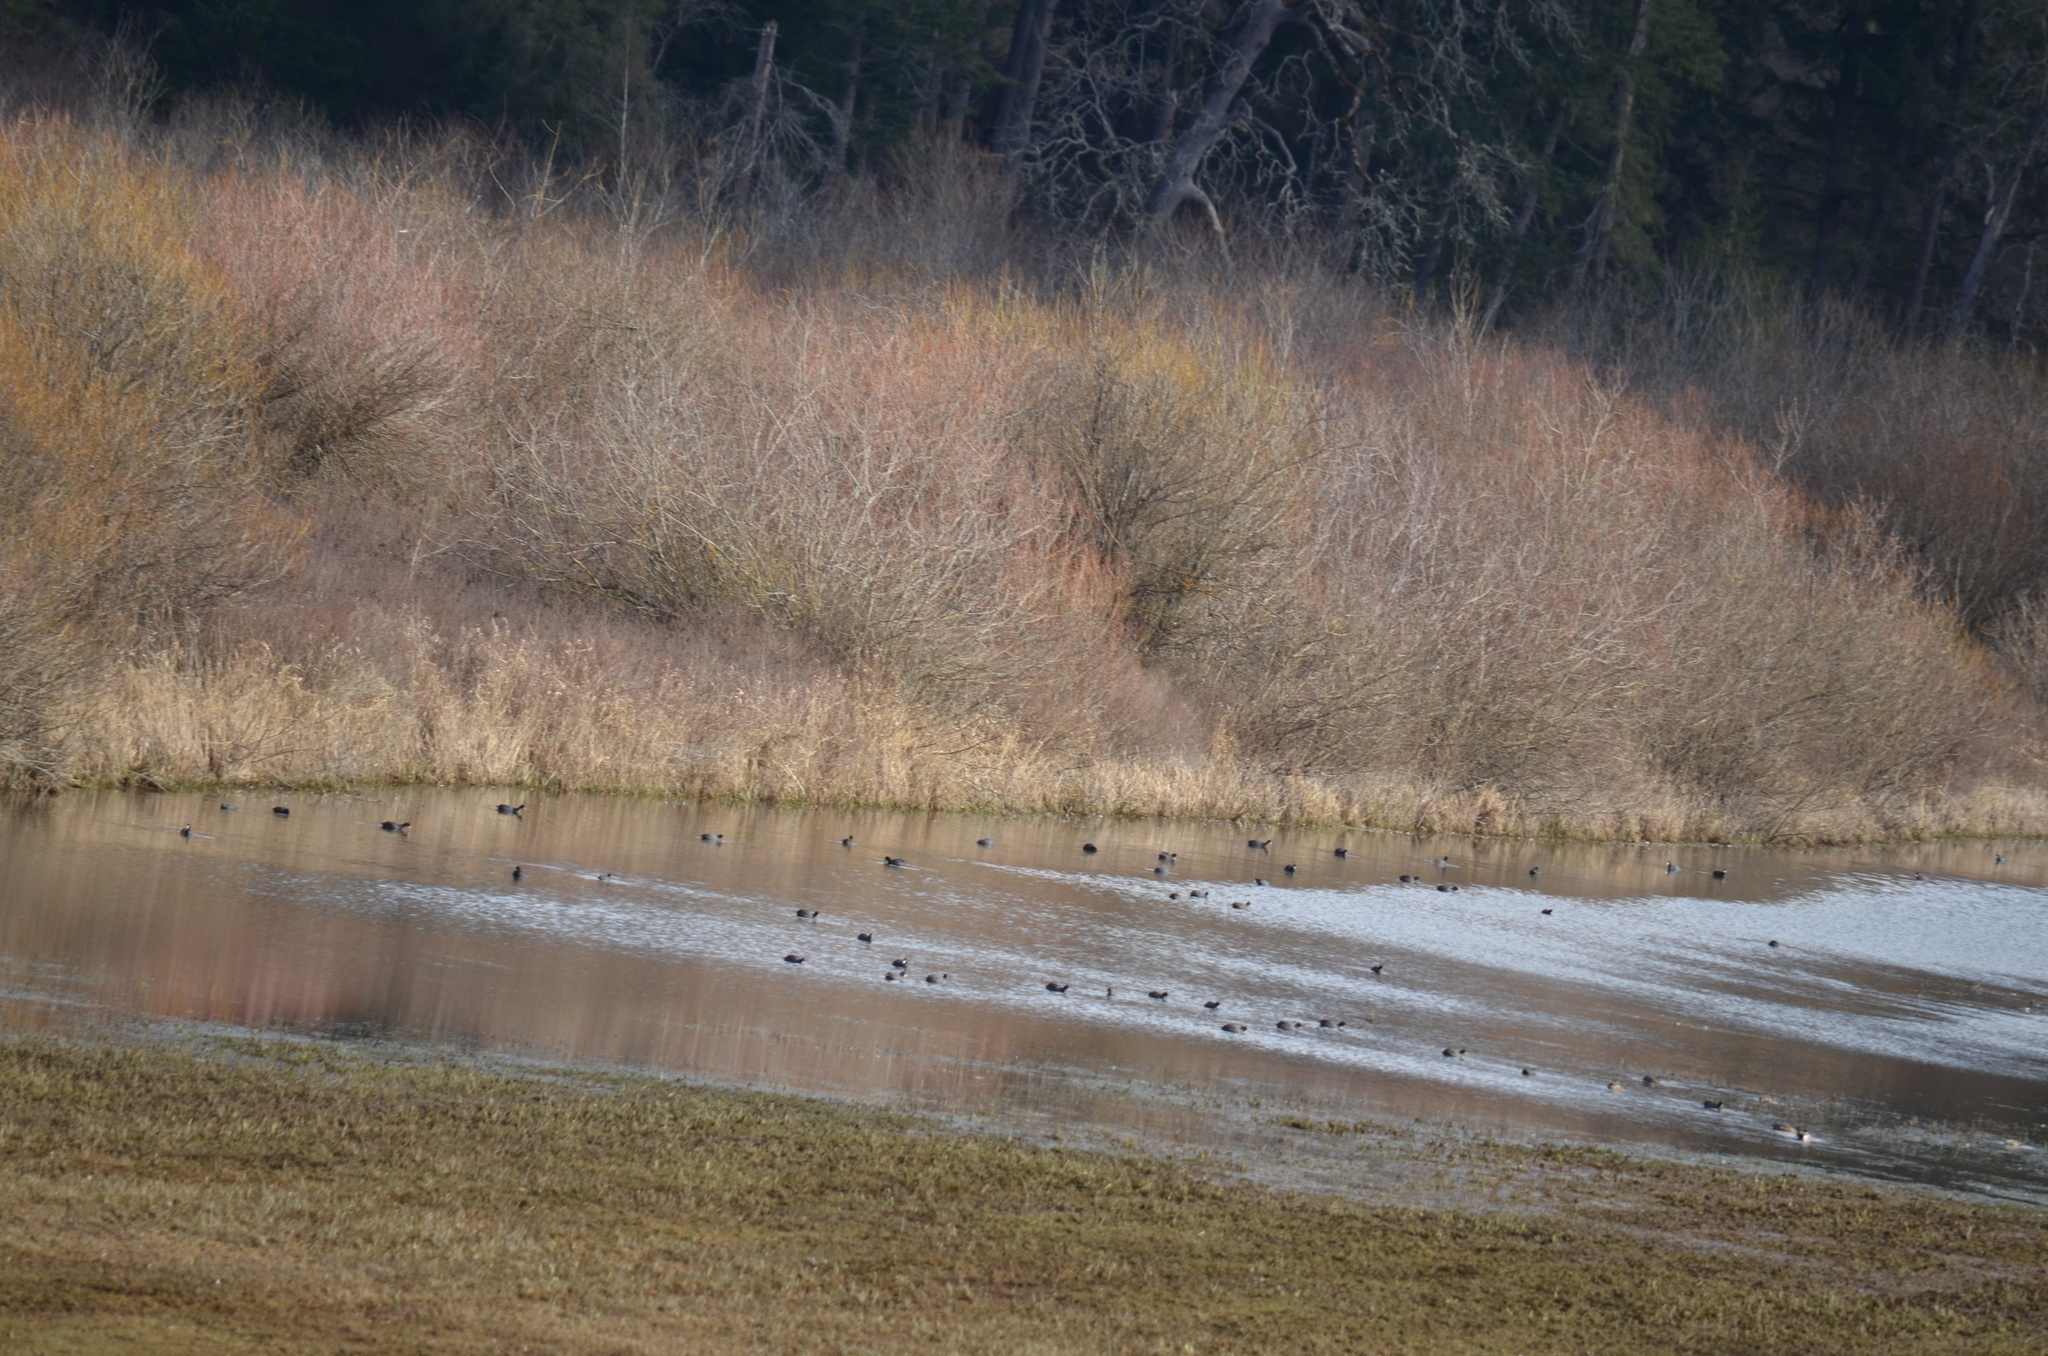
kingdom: Animalia
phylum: Chordata
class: Aves
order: Gruiformes
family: Rallidae
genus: Fulica
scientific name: Fulica americana
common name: American coot
